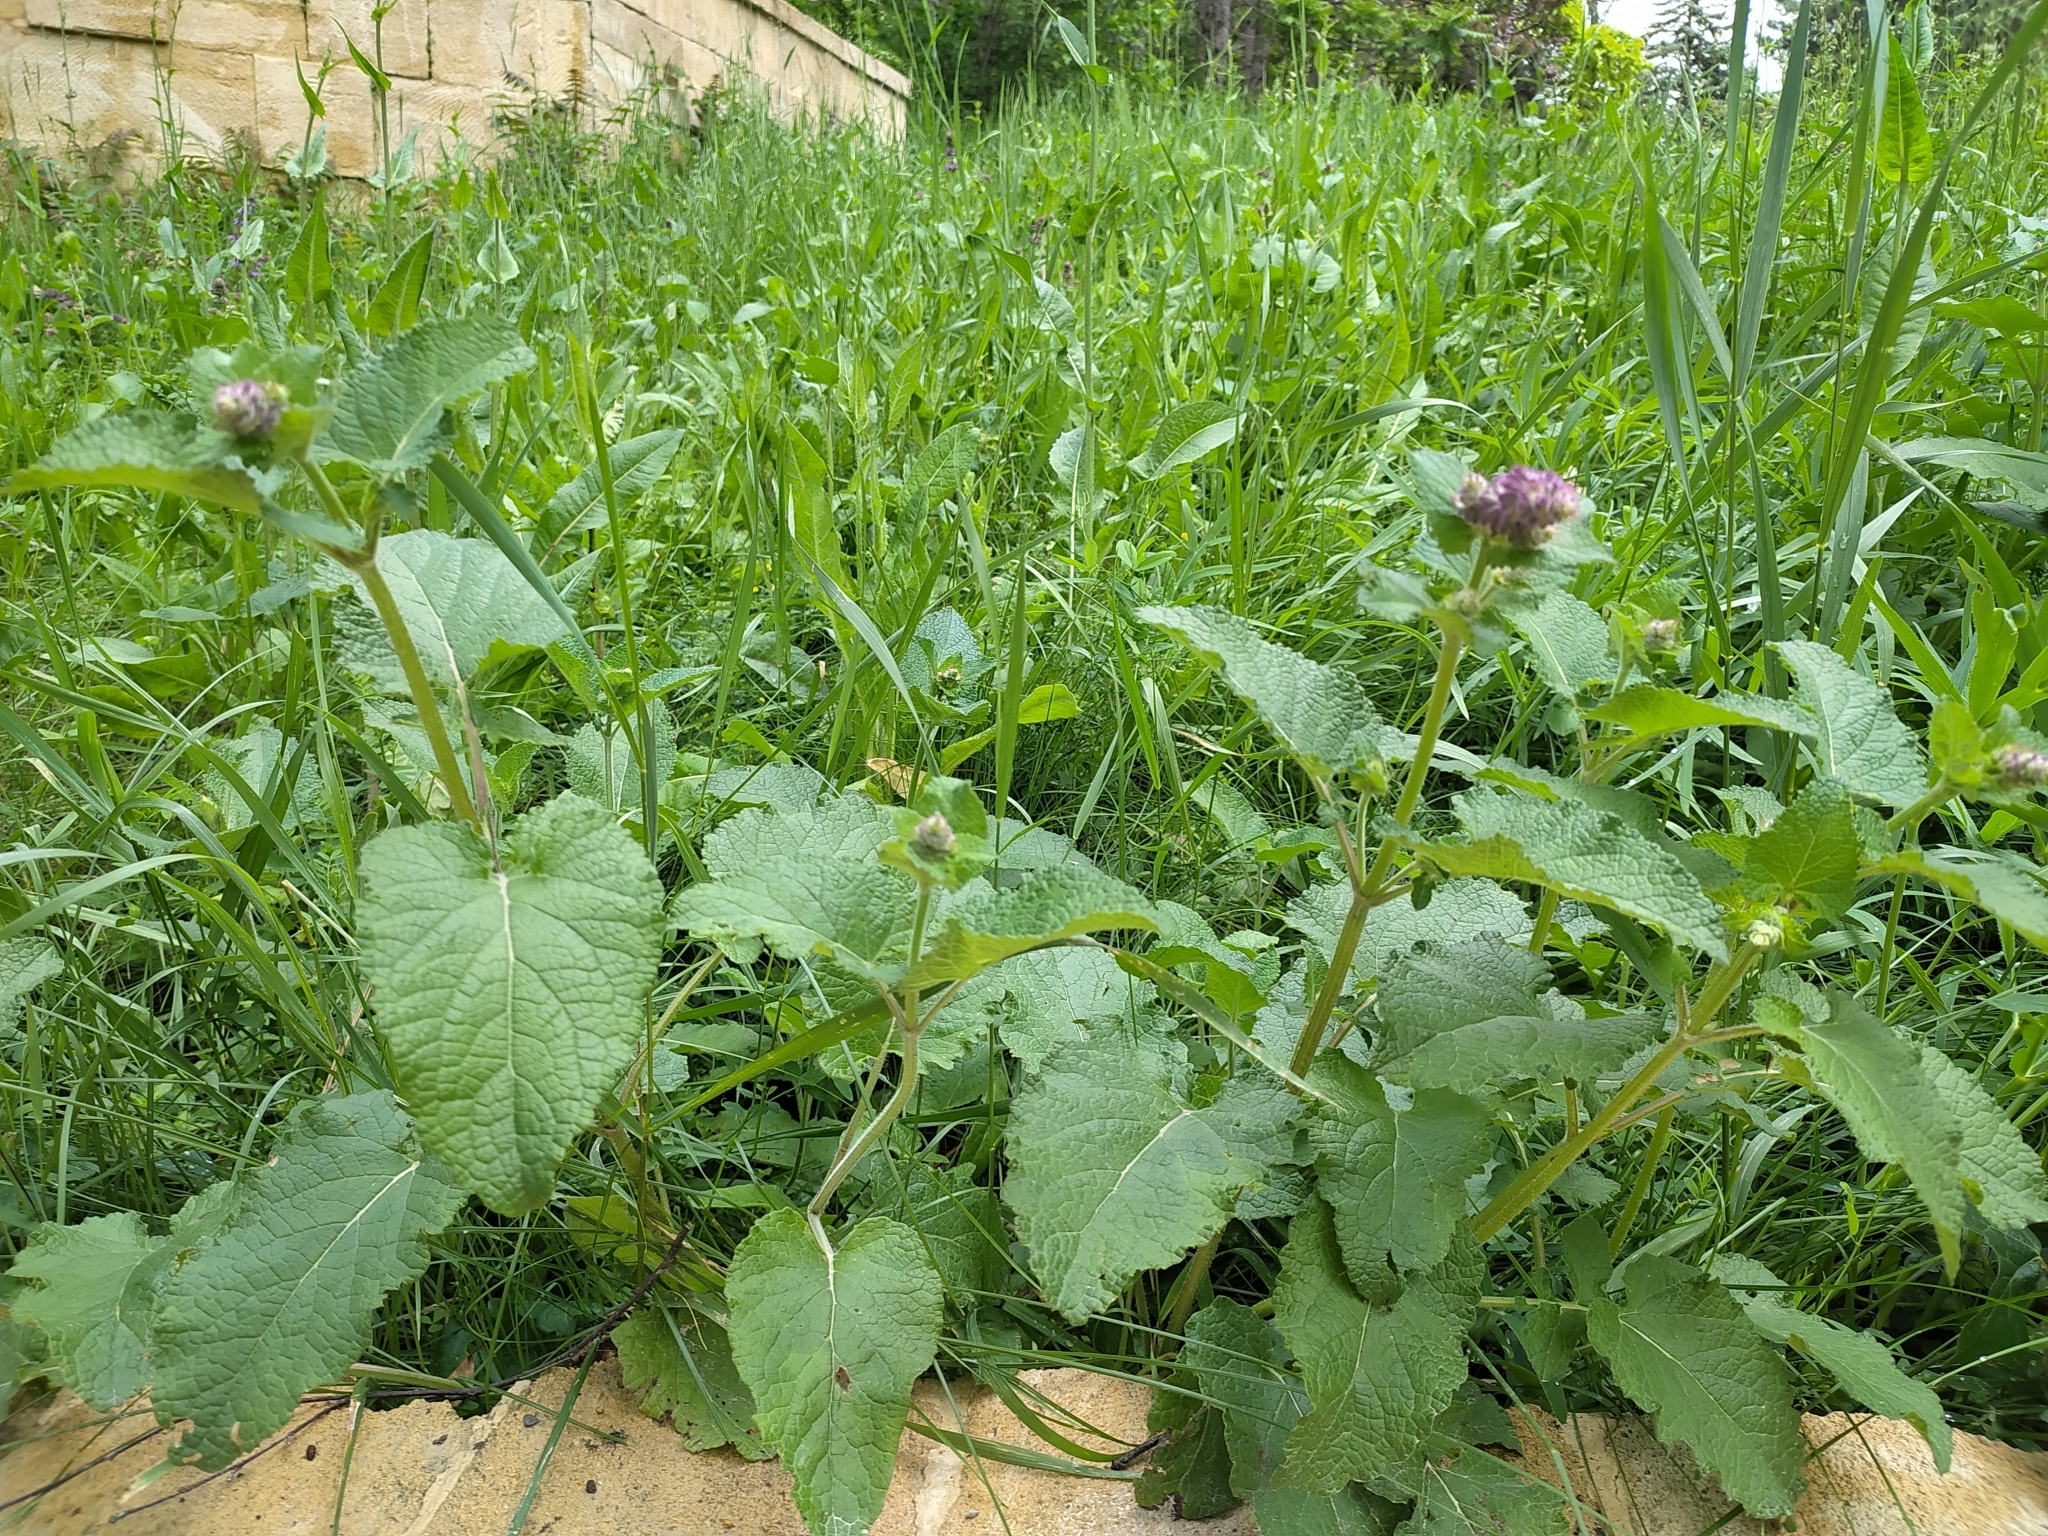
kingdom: Plantae
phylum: Tracheophyta
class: Magnoliopsida
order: Lamiales
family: Lamiaceae
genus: Salvia
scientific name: Salvia verticillata
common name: Whorled clary
